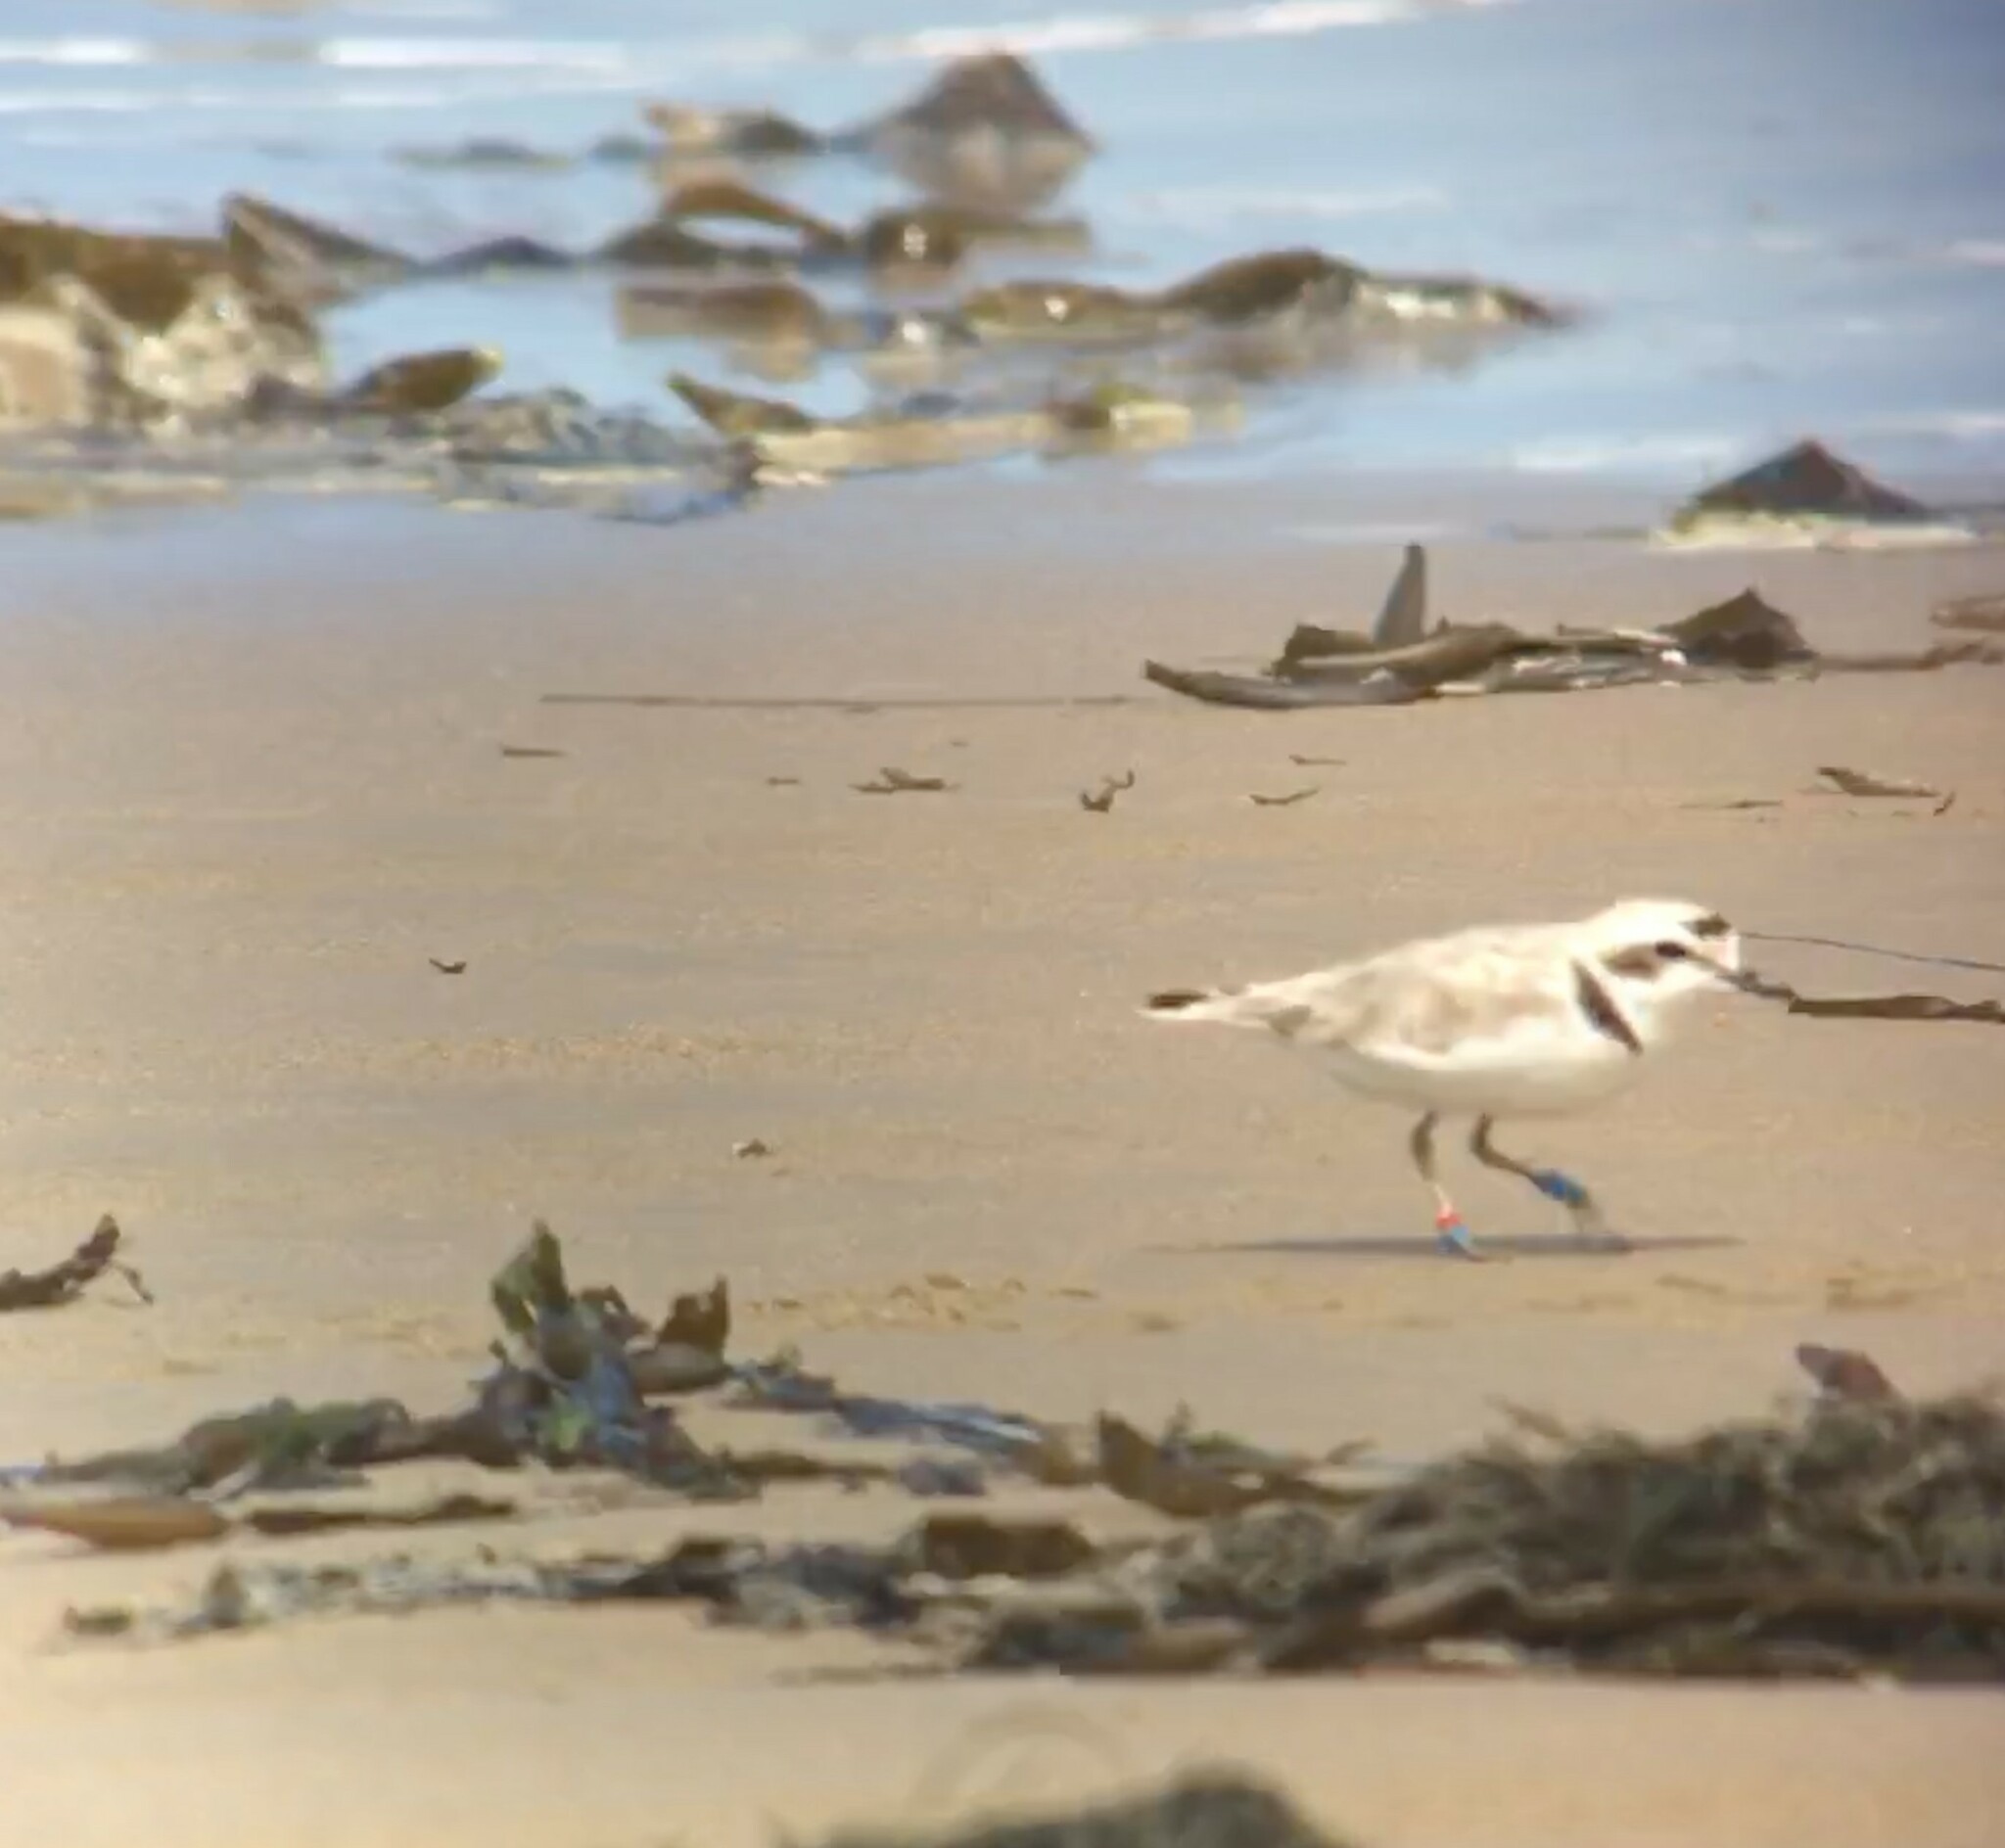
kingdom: Animalia
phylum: Chordata
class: Aves
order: Charadriiformes
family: Charadriidae
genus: Anarhynchus
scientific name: Anarhynchus
